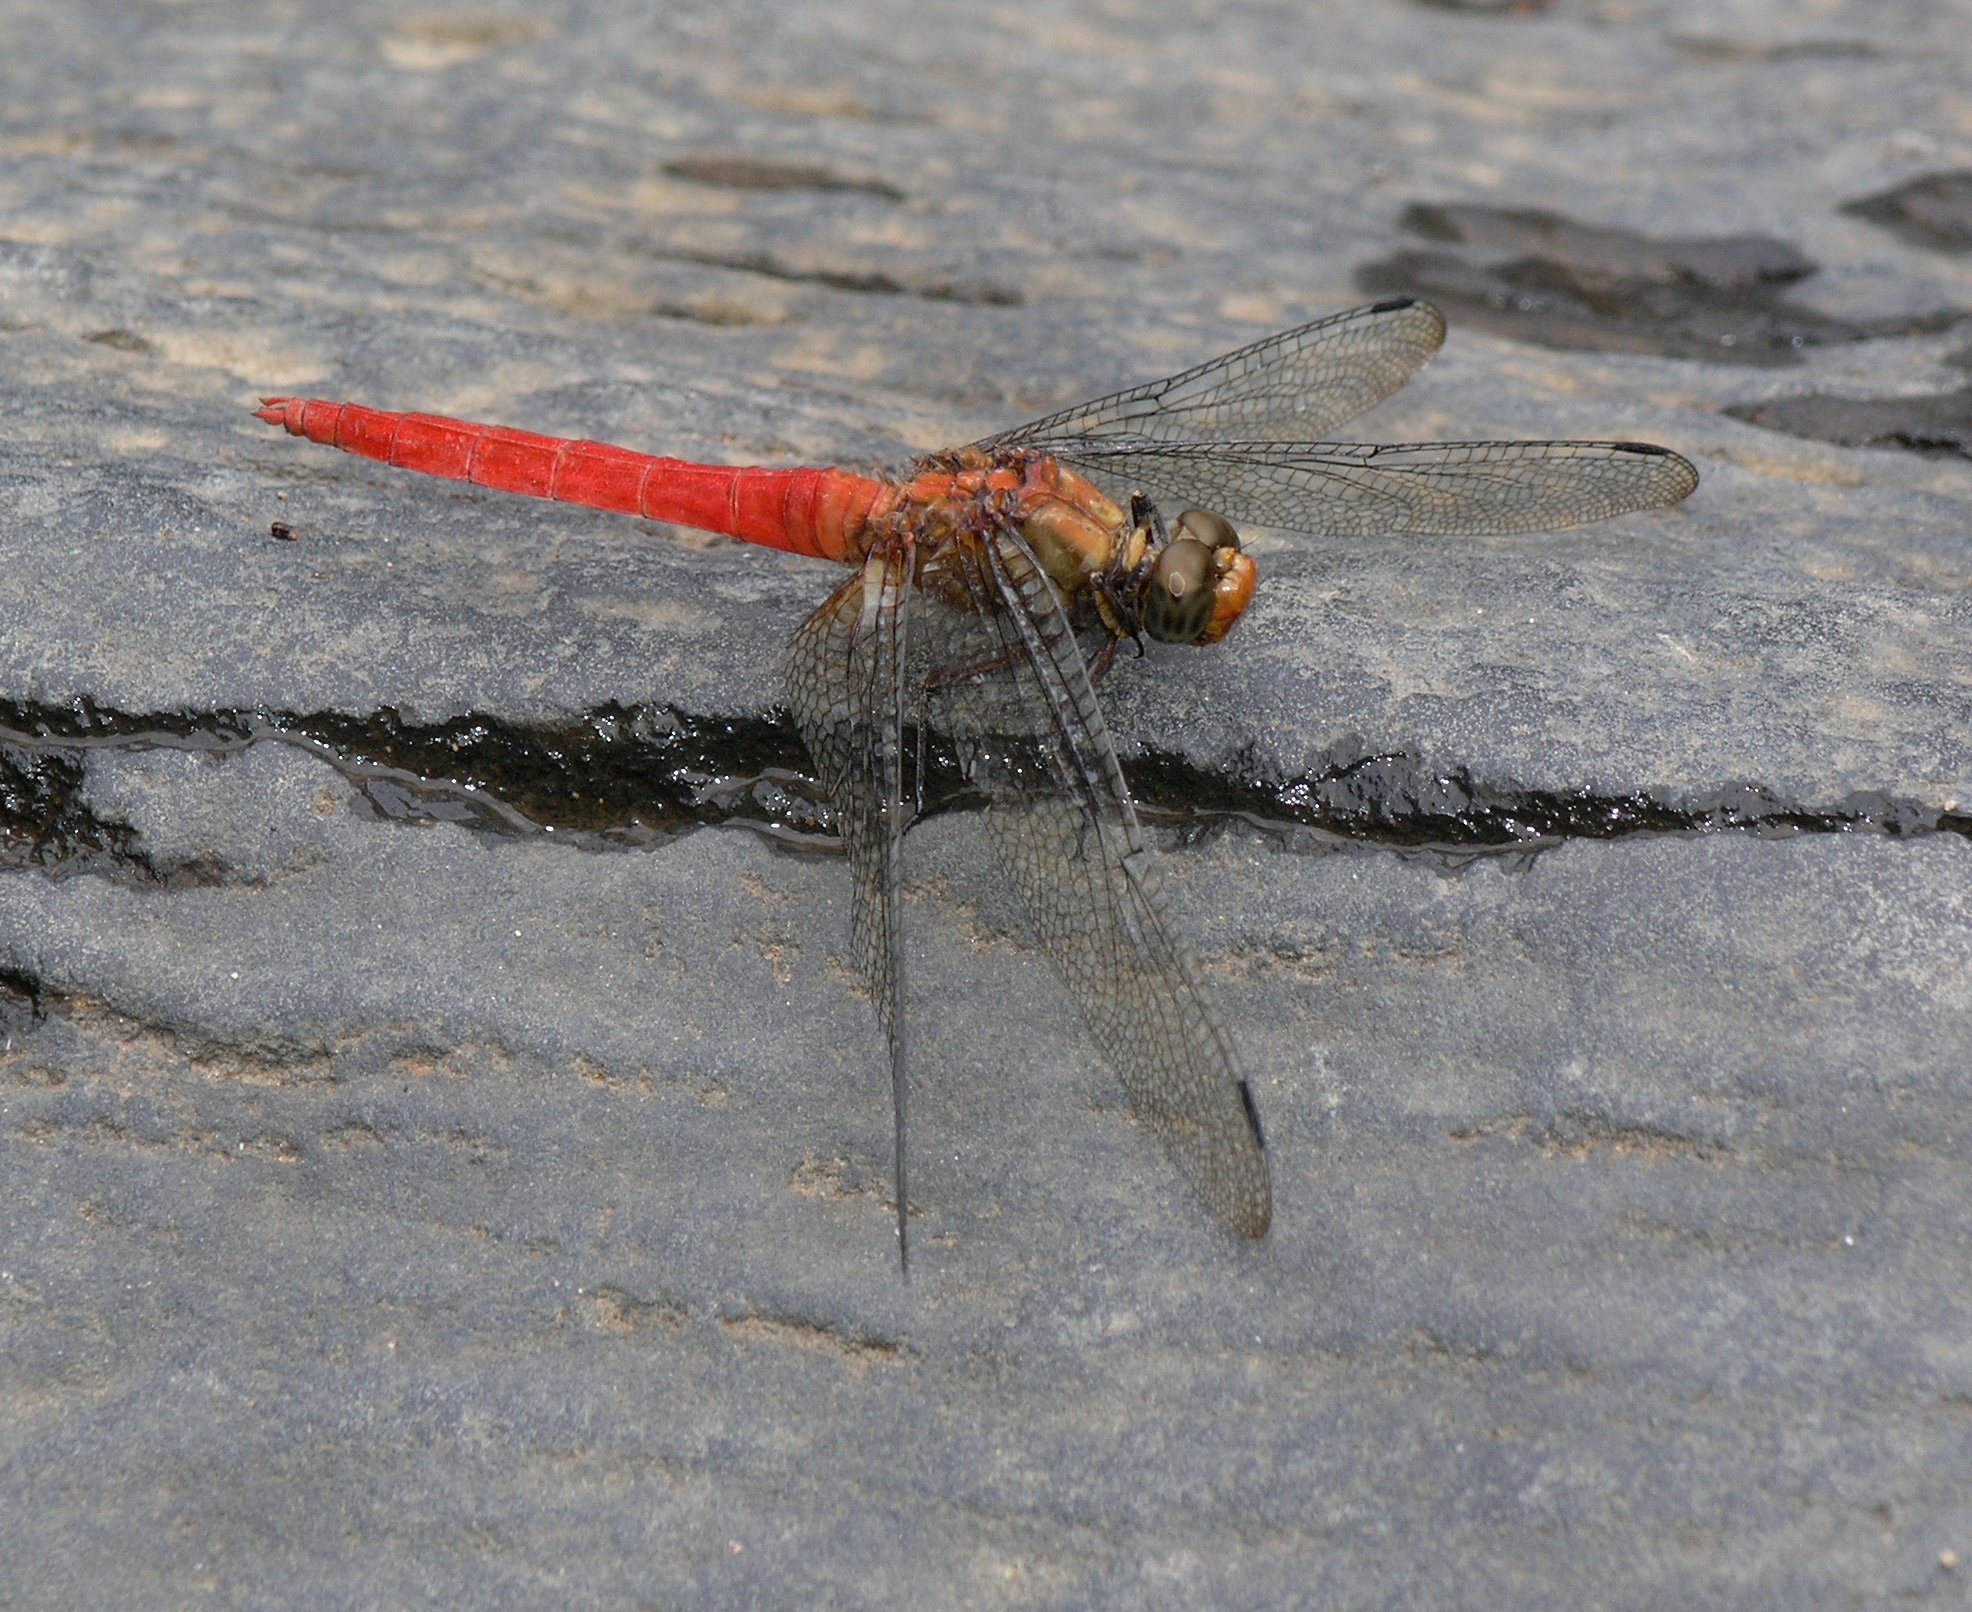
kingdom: Animalia
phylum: Arthropoda
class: Insecta
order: Odonata
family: Libellulidae
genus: Orthetrum
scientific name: Orthetrum testaceum
